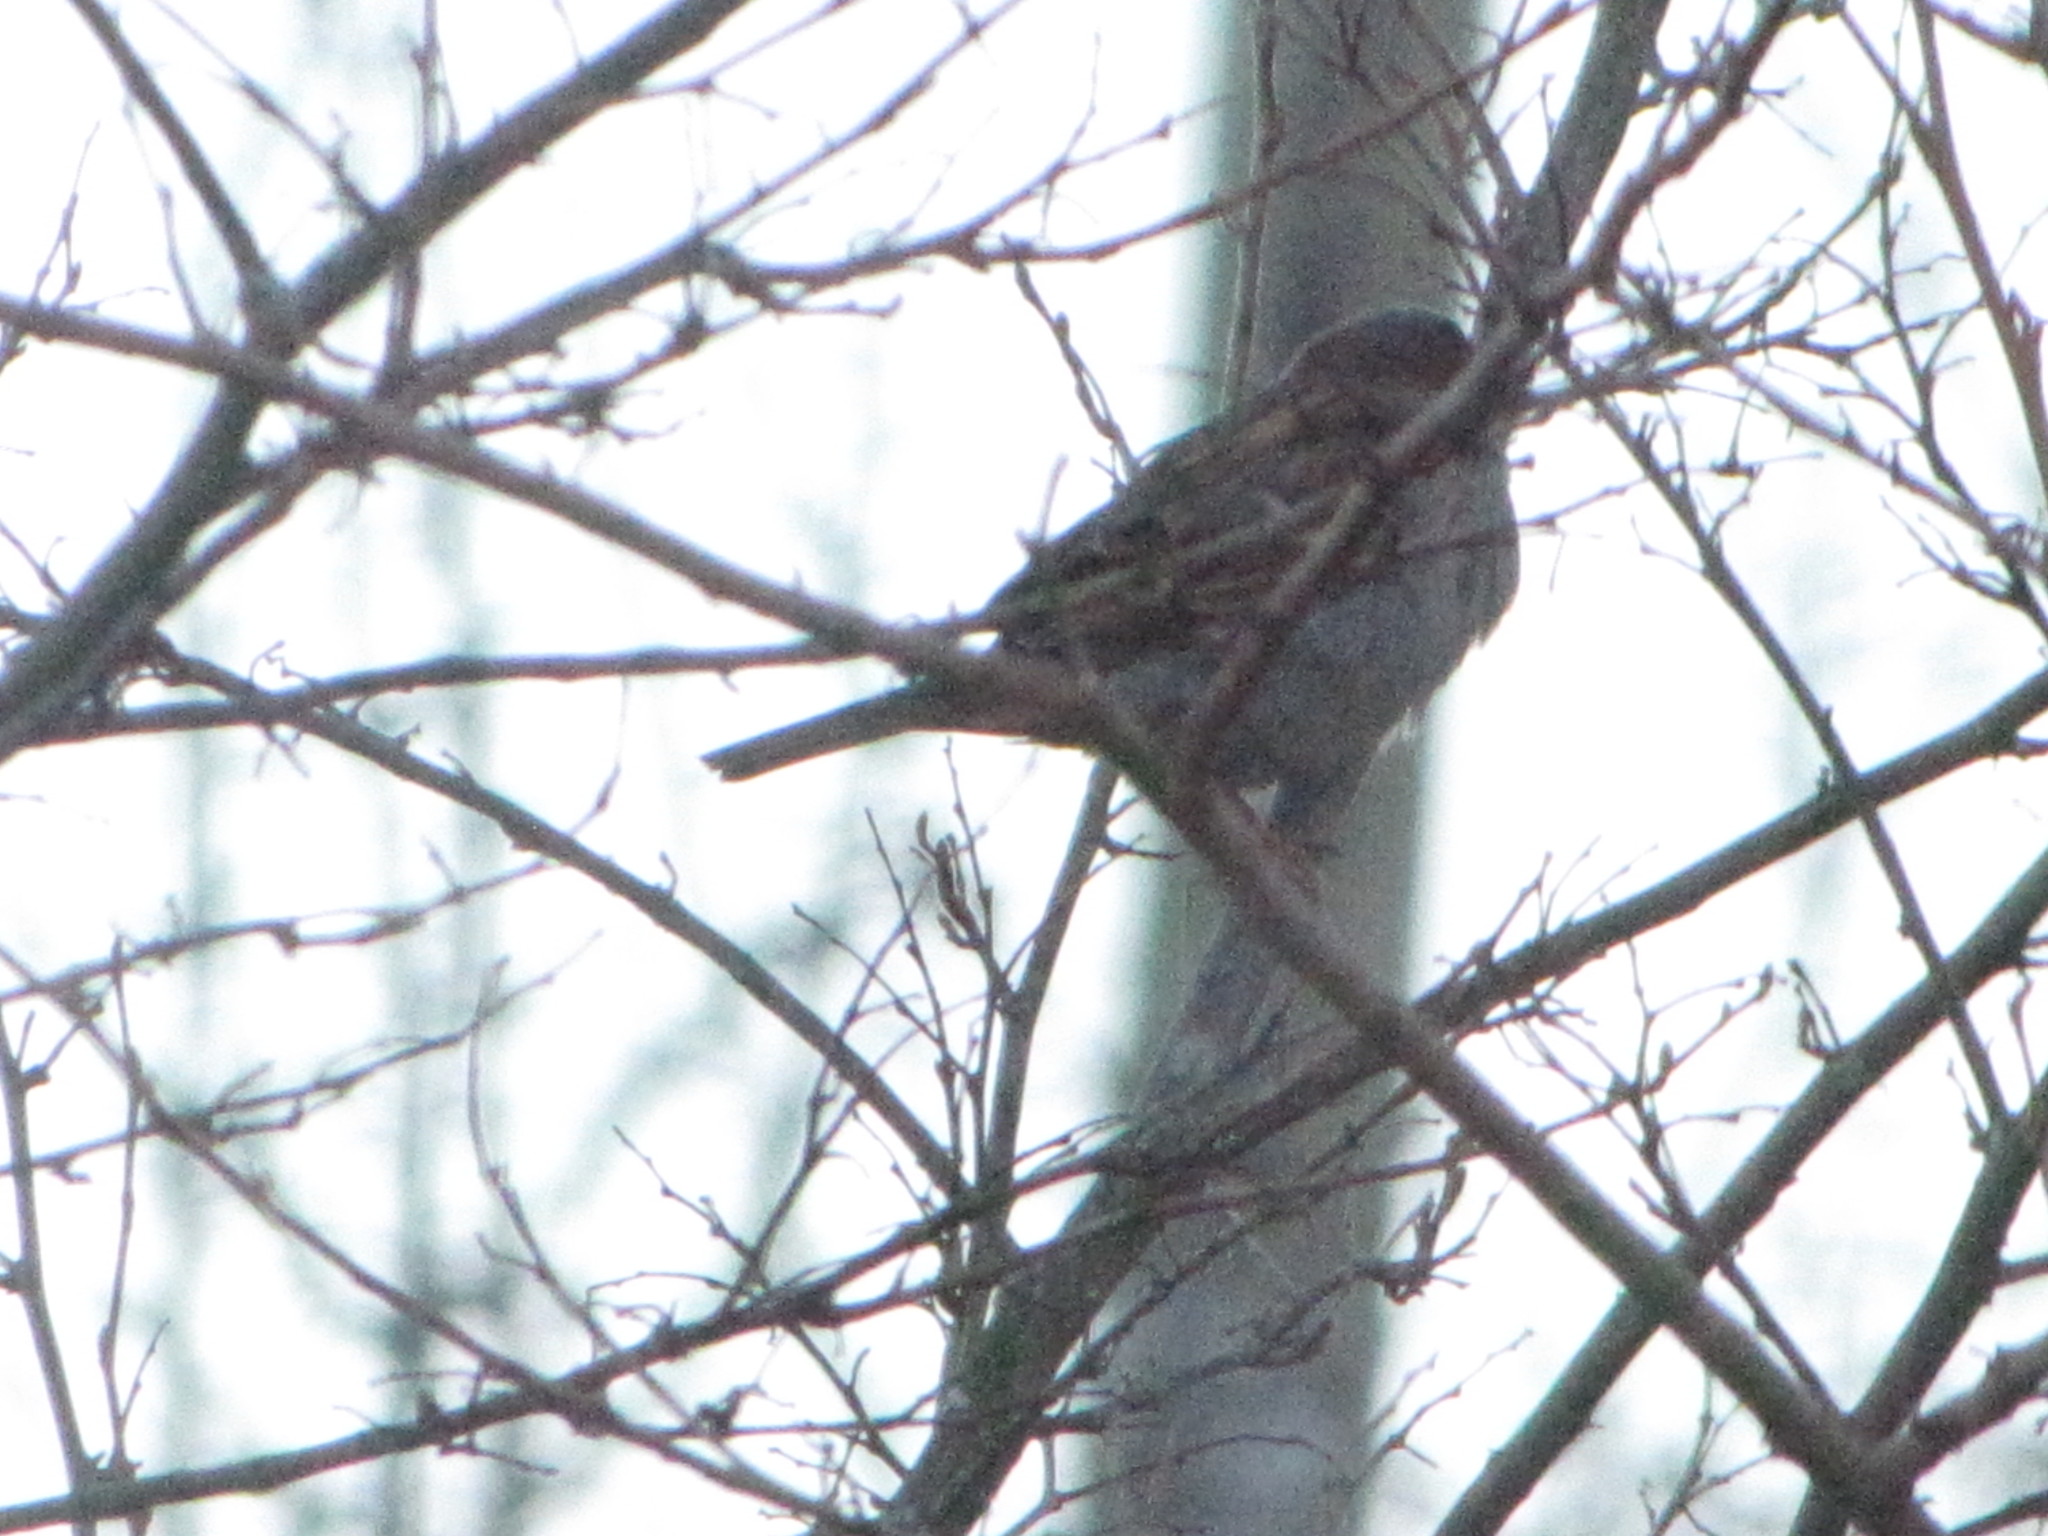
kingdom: Animalia
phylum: Chordata
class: Aves
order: Passeriformes
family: Passeridae
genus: Passer
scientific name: Passer domesticus
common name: House sparrow
